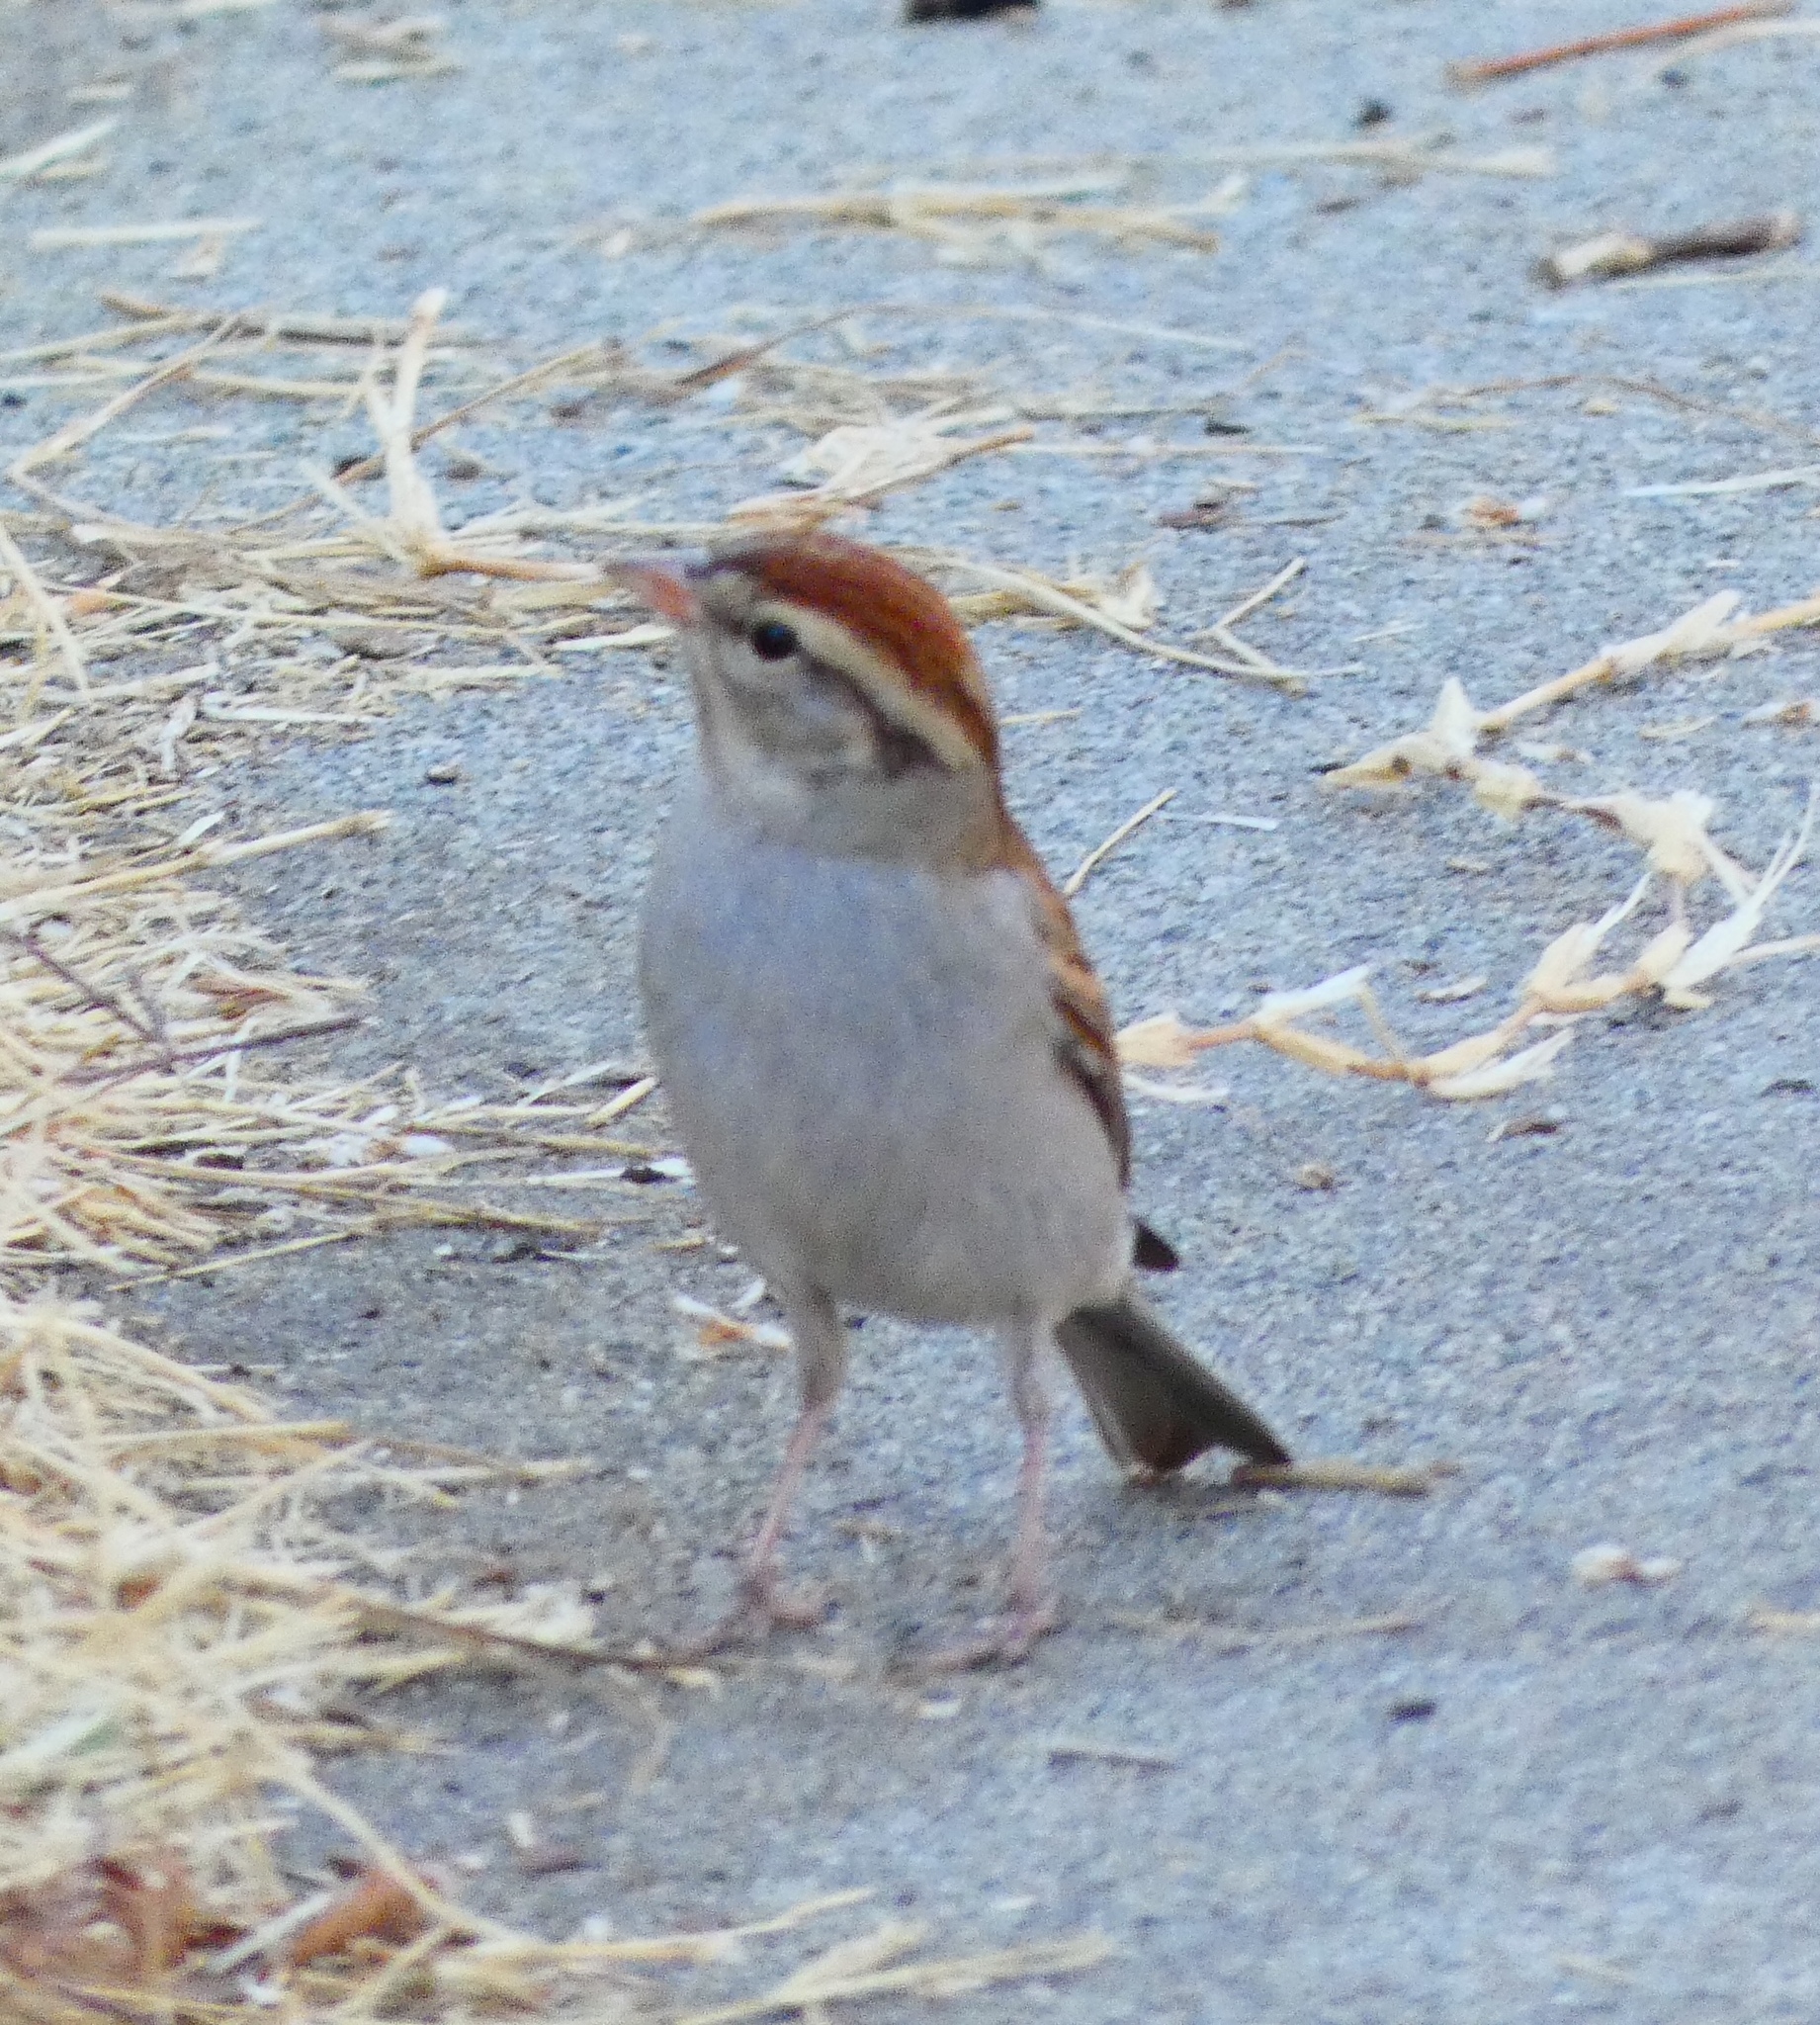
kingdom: Animalia
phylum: Chordata
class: Aves
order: Passeriformes
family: Passerellidae
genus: Spizella
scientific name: Spizella passerina
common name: Chipping sparrow
